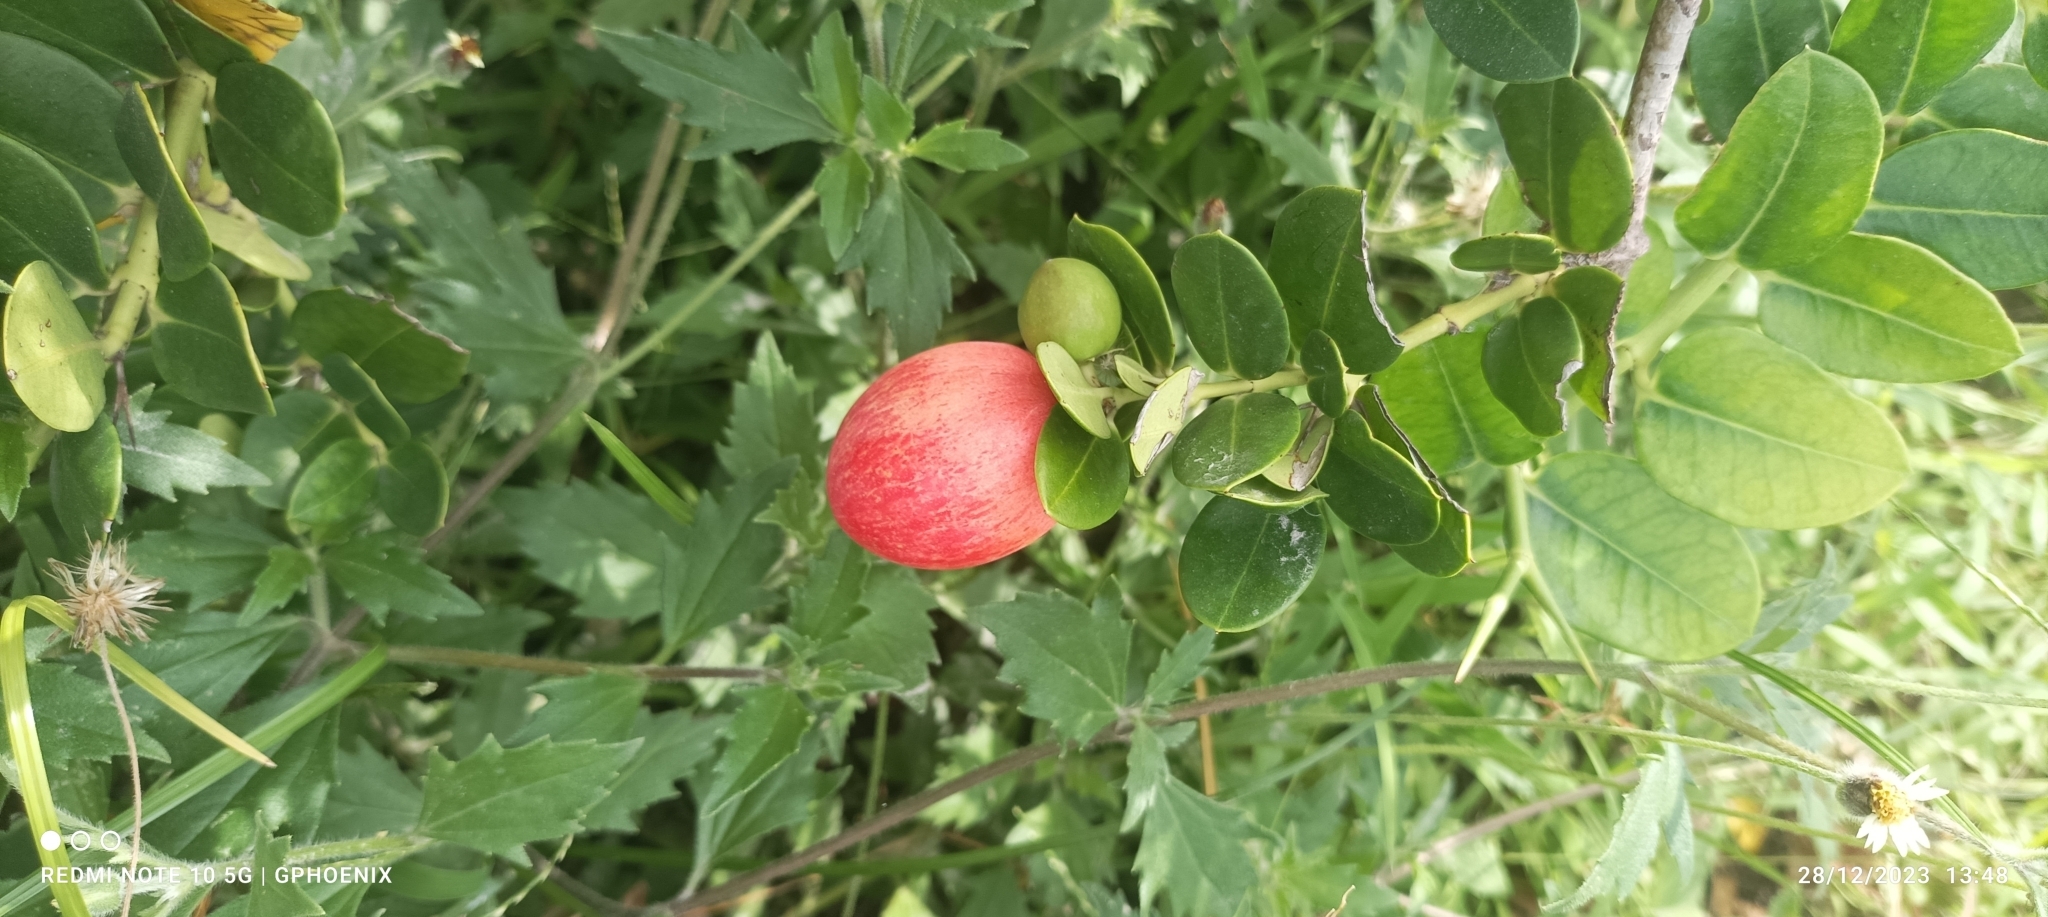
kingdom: Plantae
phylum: Tracheophyta
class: Magnoliopsida
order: Gentianales
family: Apocynaceae
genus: Carissa
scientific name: Carissa macrocarpa
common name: Natal plum
